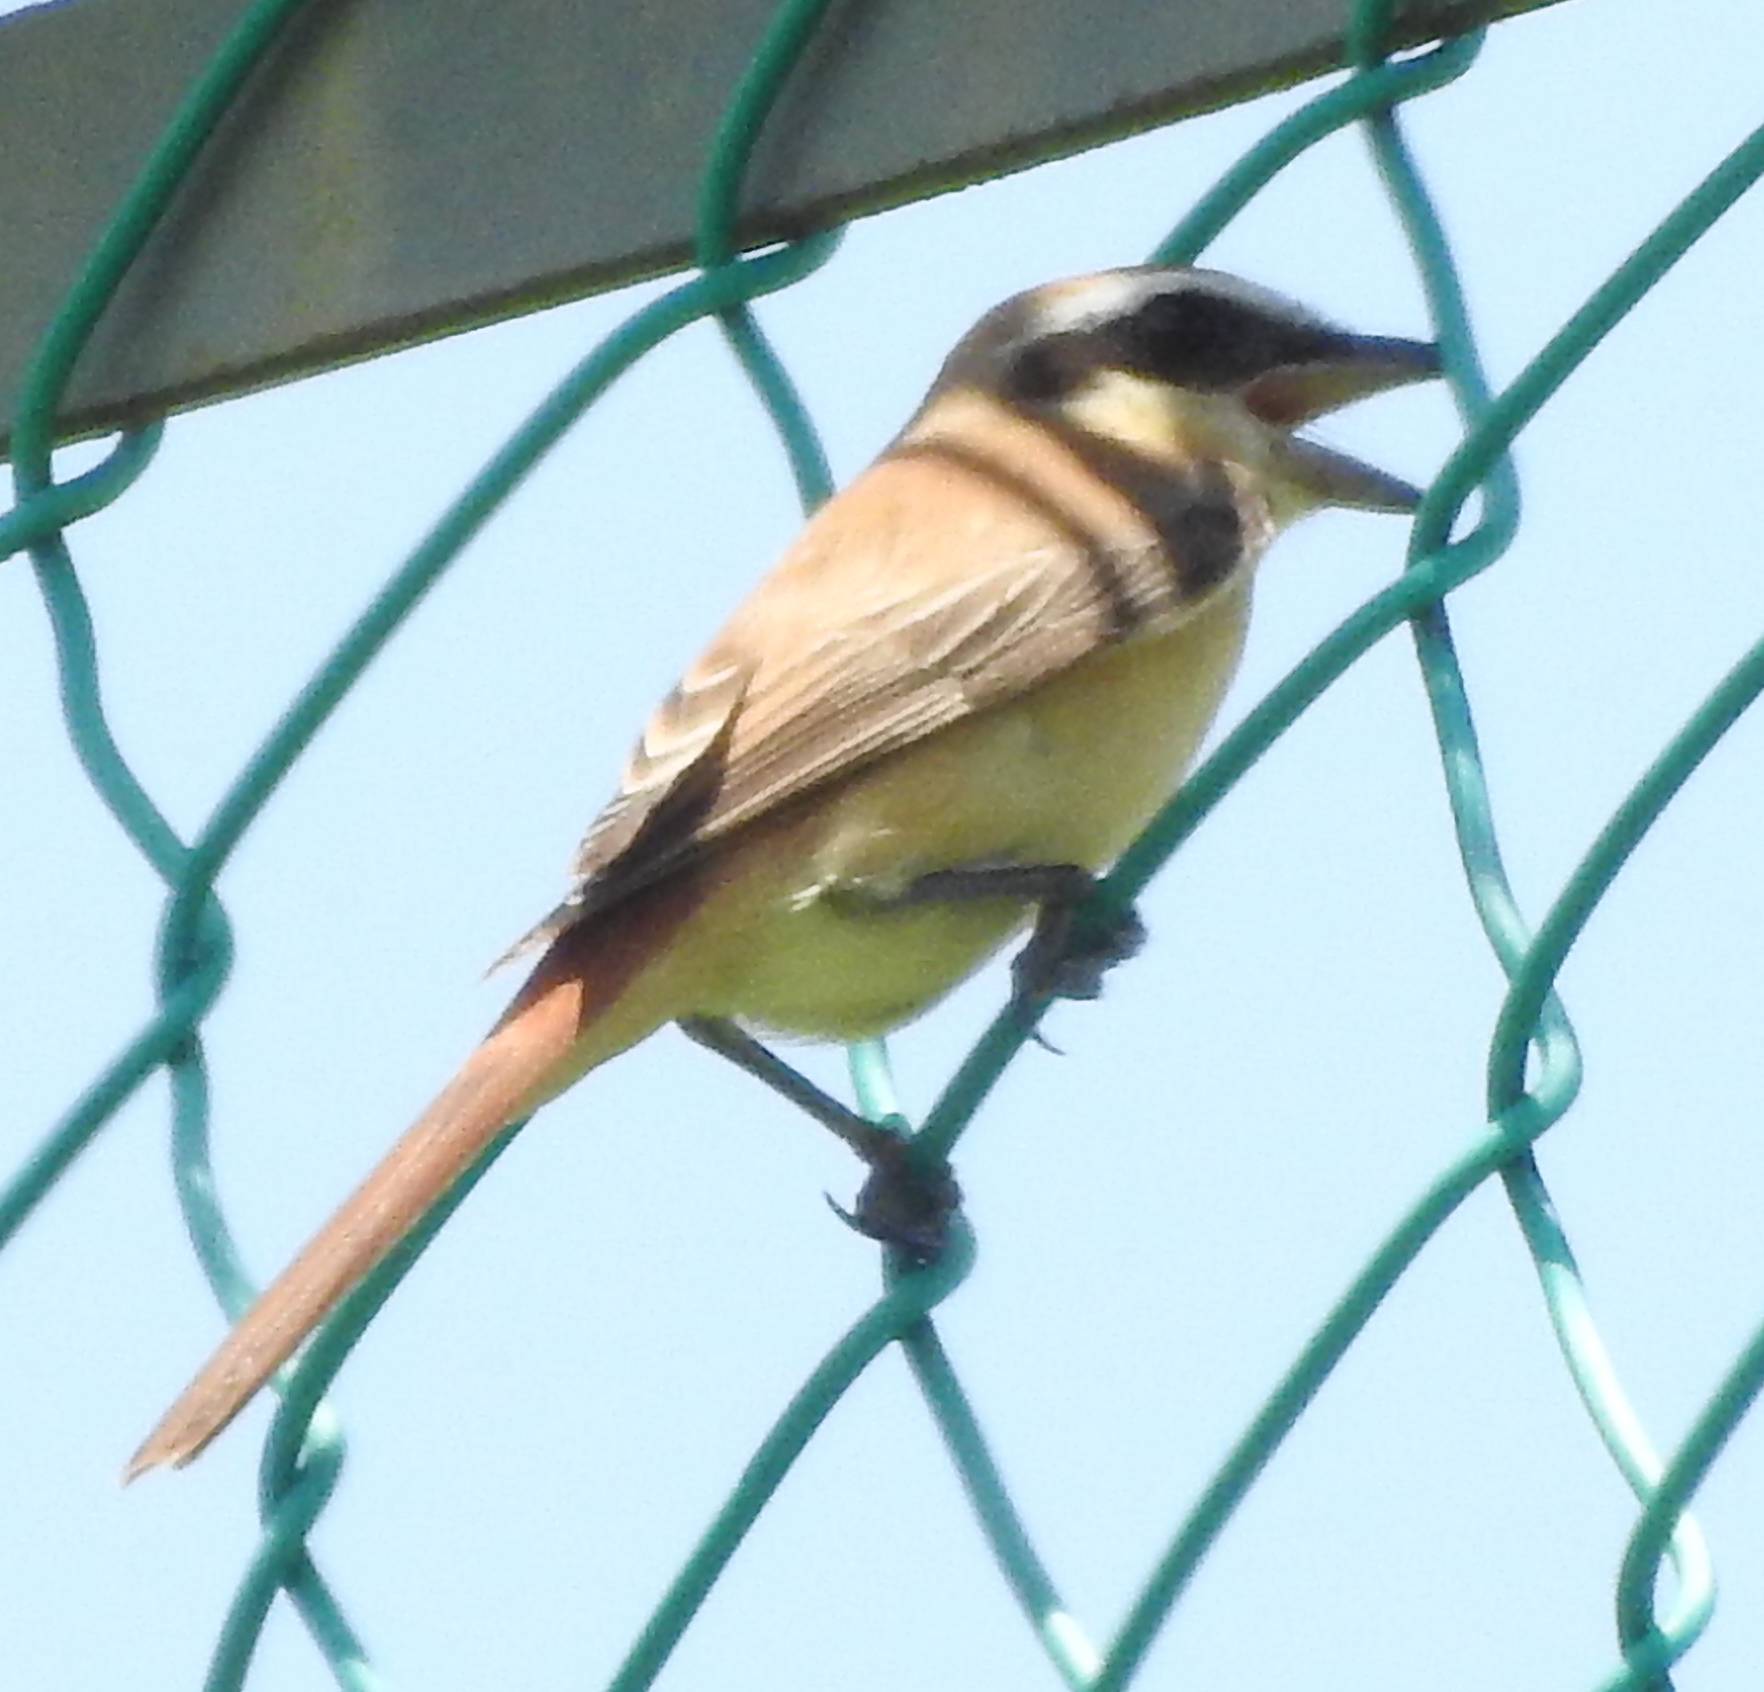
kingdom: Animalia
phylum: Chordata
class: Aves
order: Passeriformes
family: Laniidae
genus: Lanius
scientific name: Lanius cristatus
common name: Brown shrike
